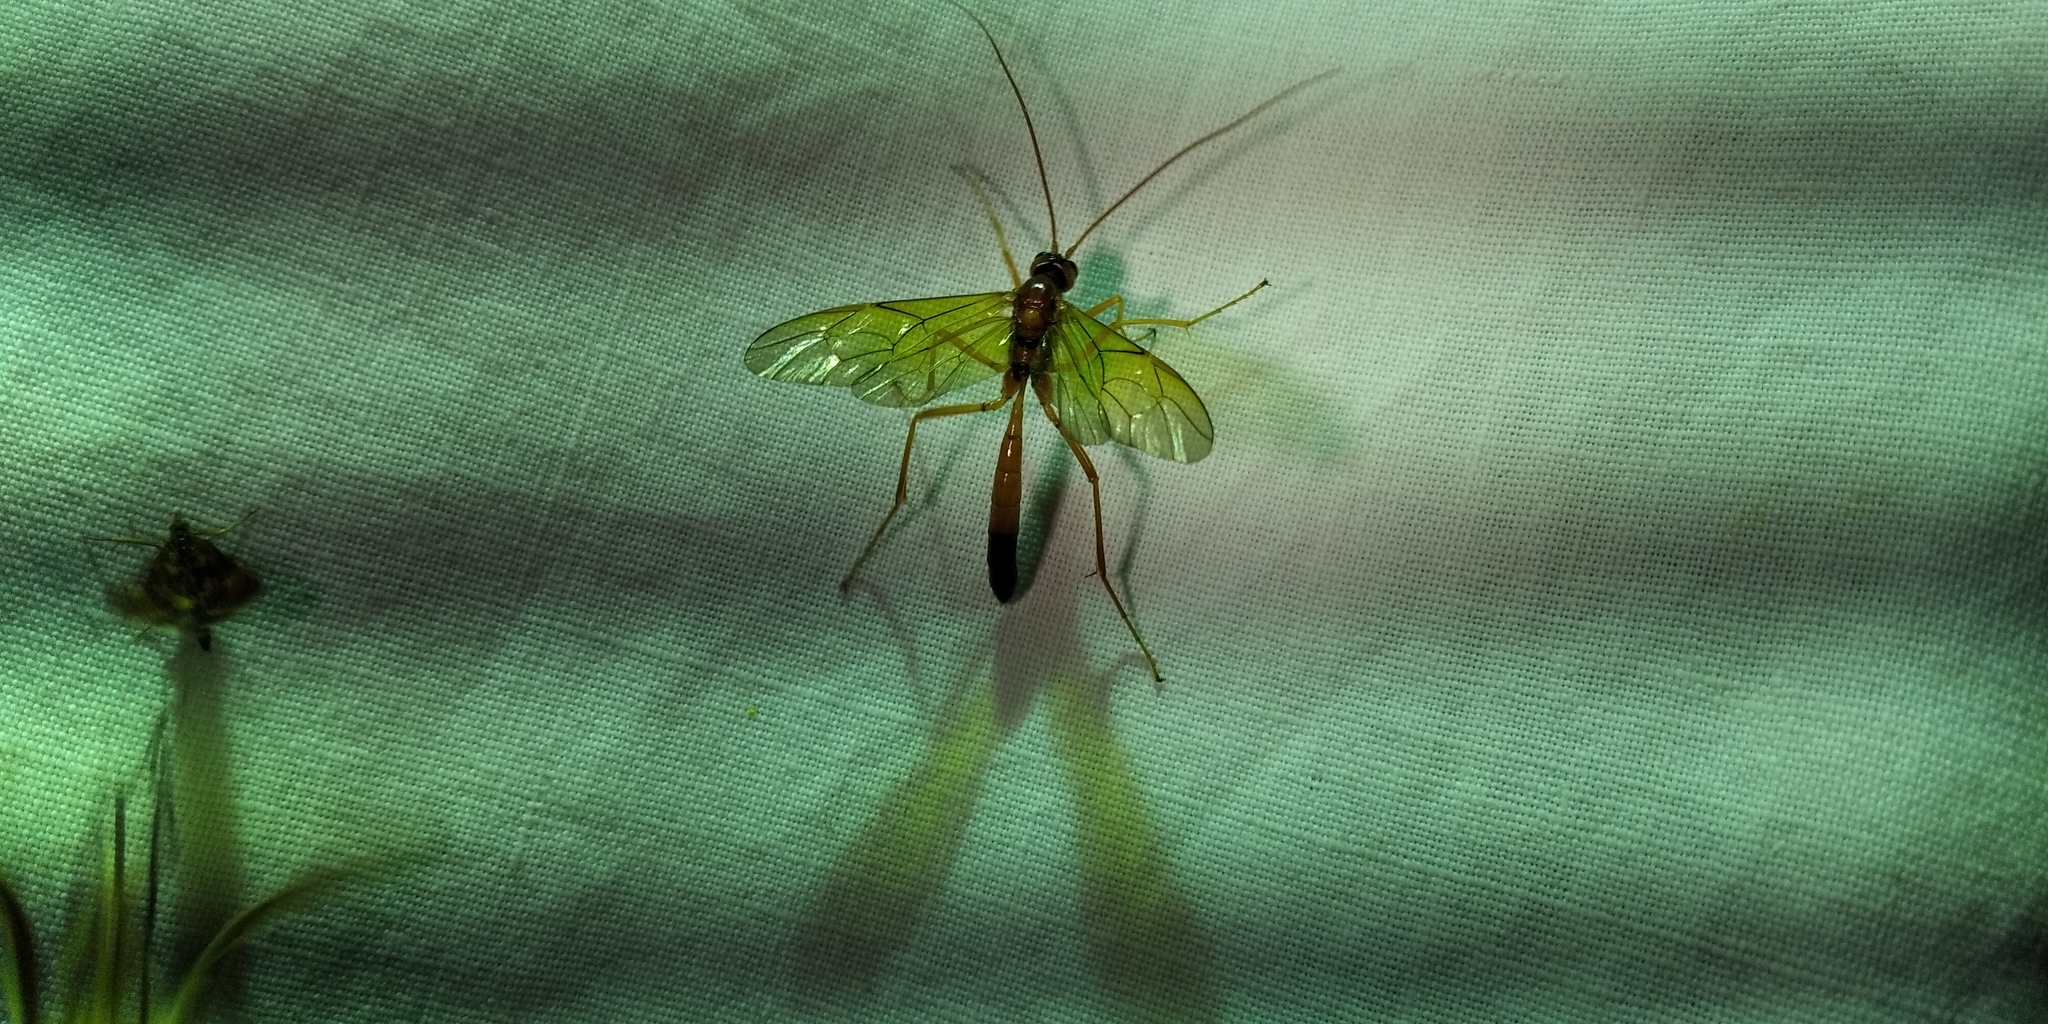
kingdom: Animalia
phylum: Arthropoda
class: Insecta
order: Hymenoptera
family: Ichneumonidae
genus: Opheltes
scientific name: Opheltes glaucopterus
